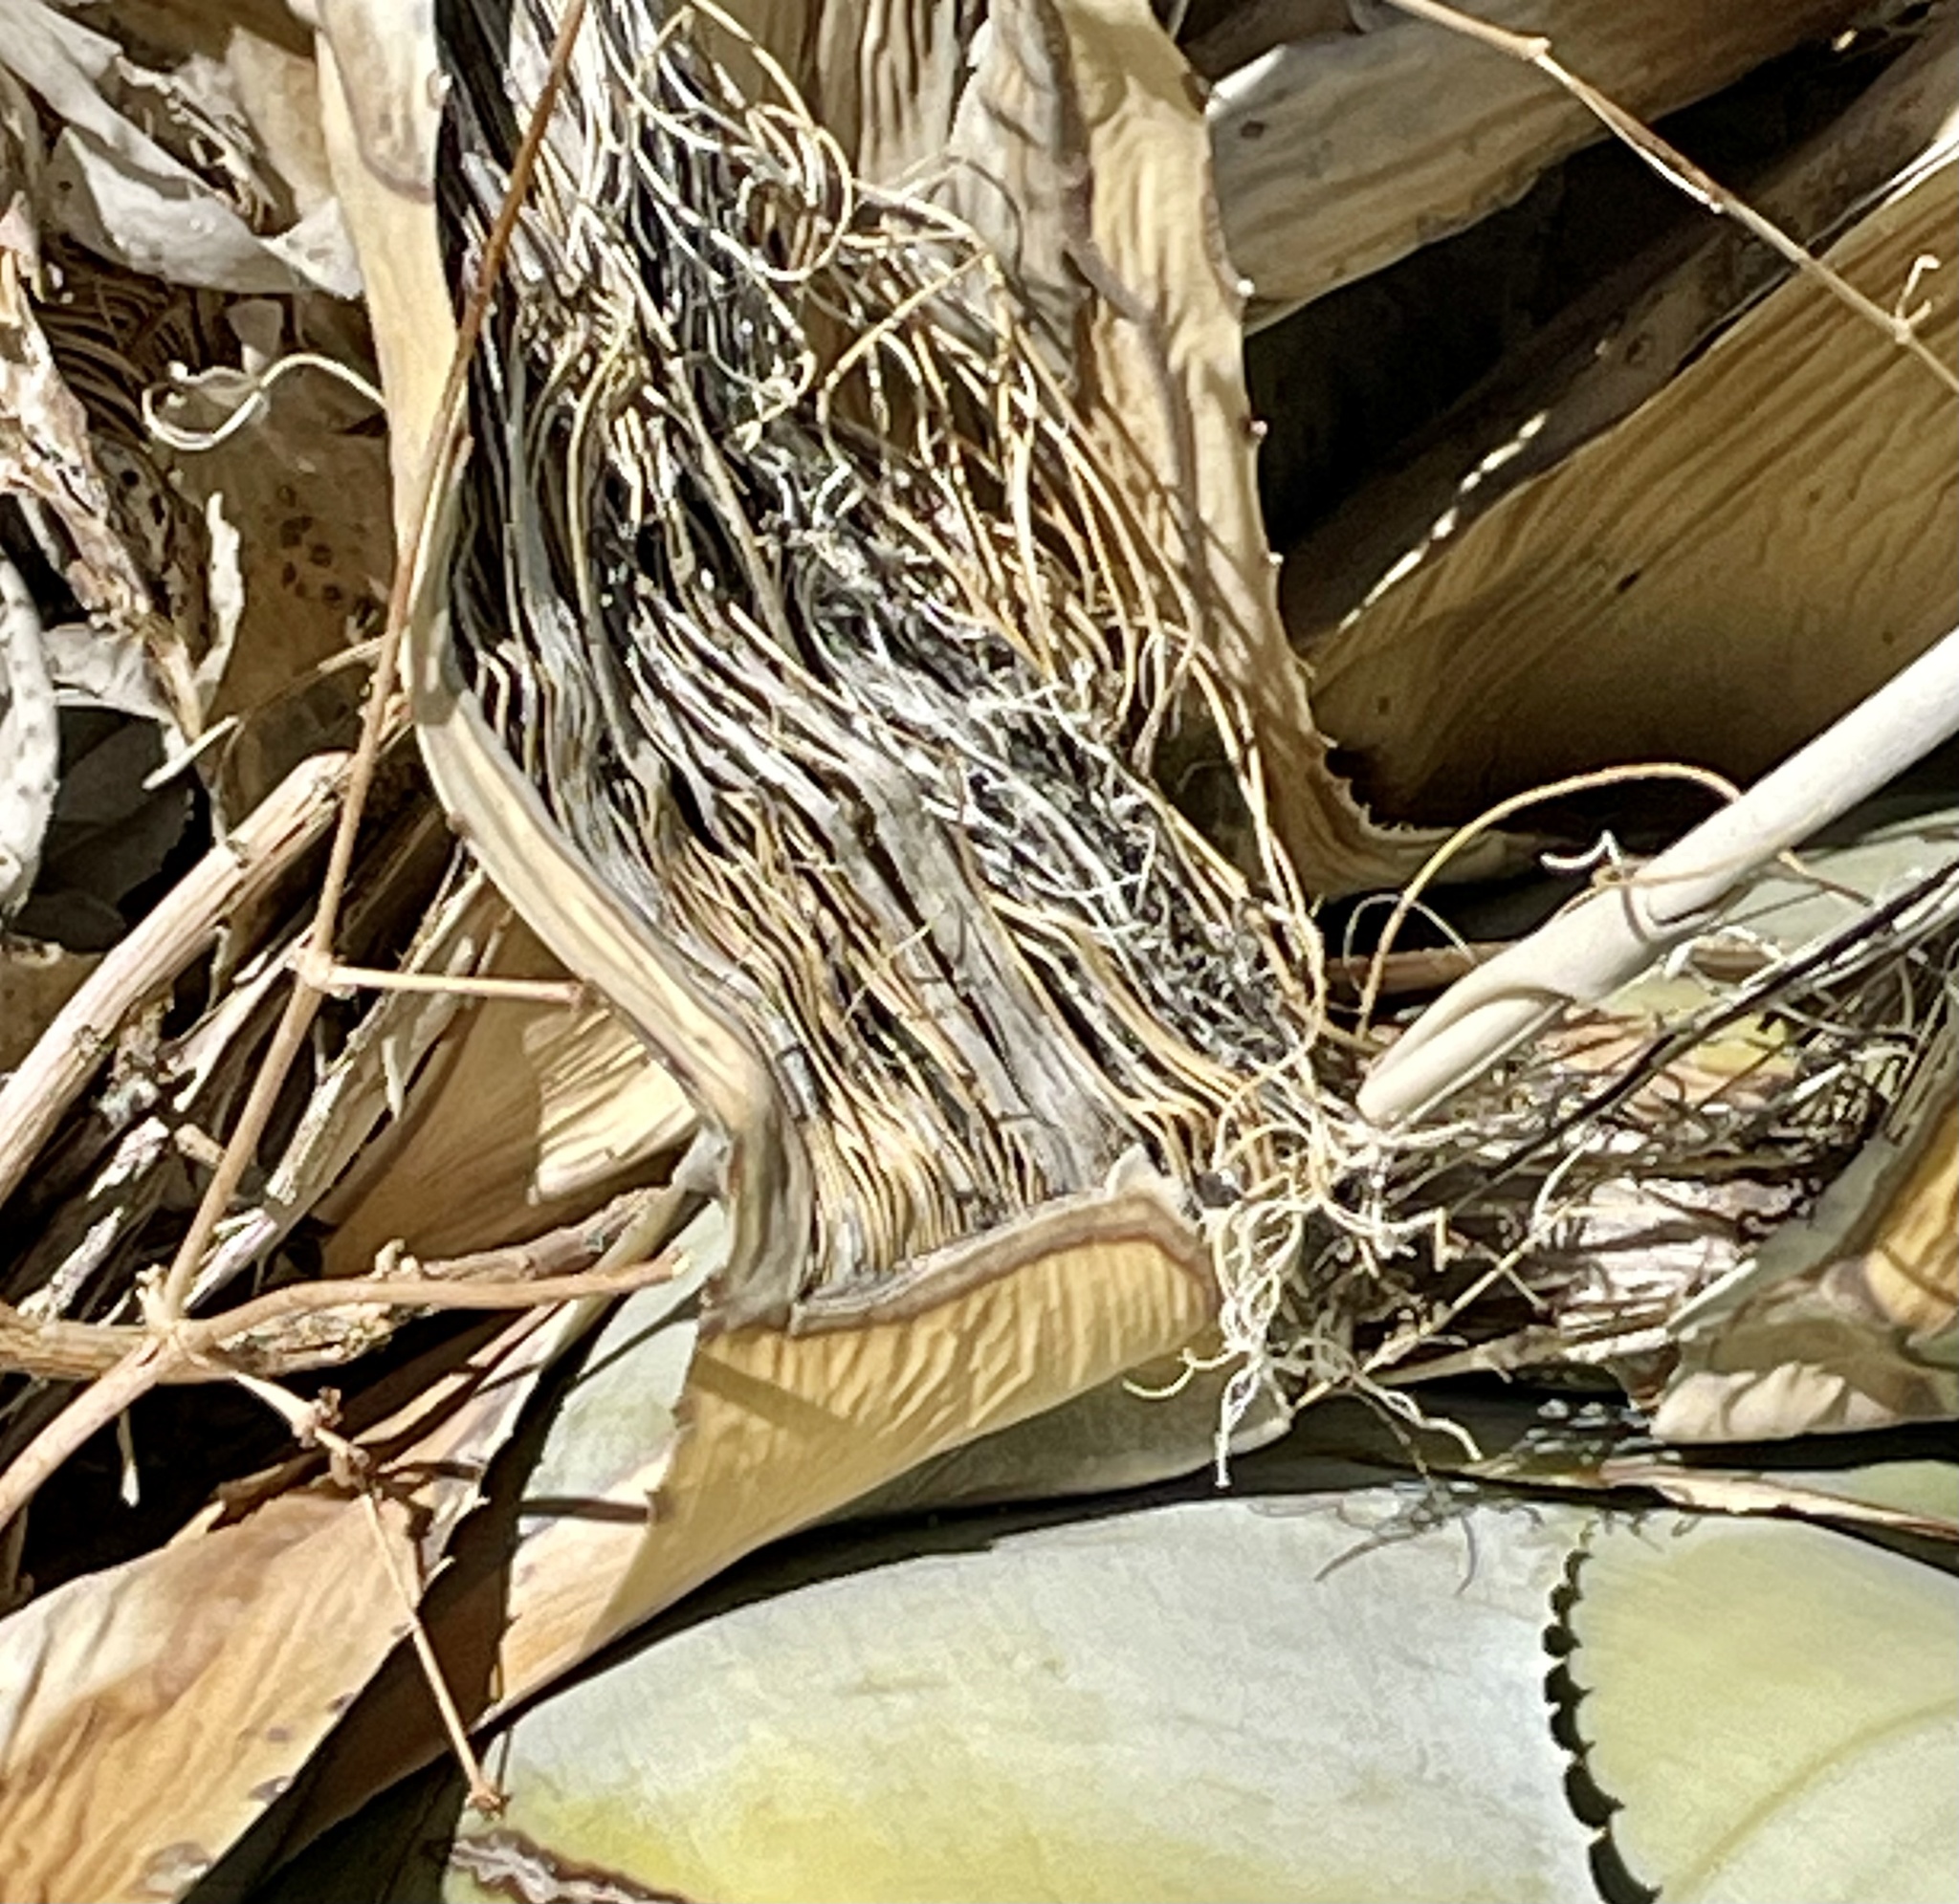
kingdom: Plantae
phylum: Tracheophyta
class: Liliopsida
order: Asparagales
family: Asparagaceae
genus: Agave
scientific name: Agave deserti
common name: Desert agave
